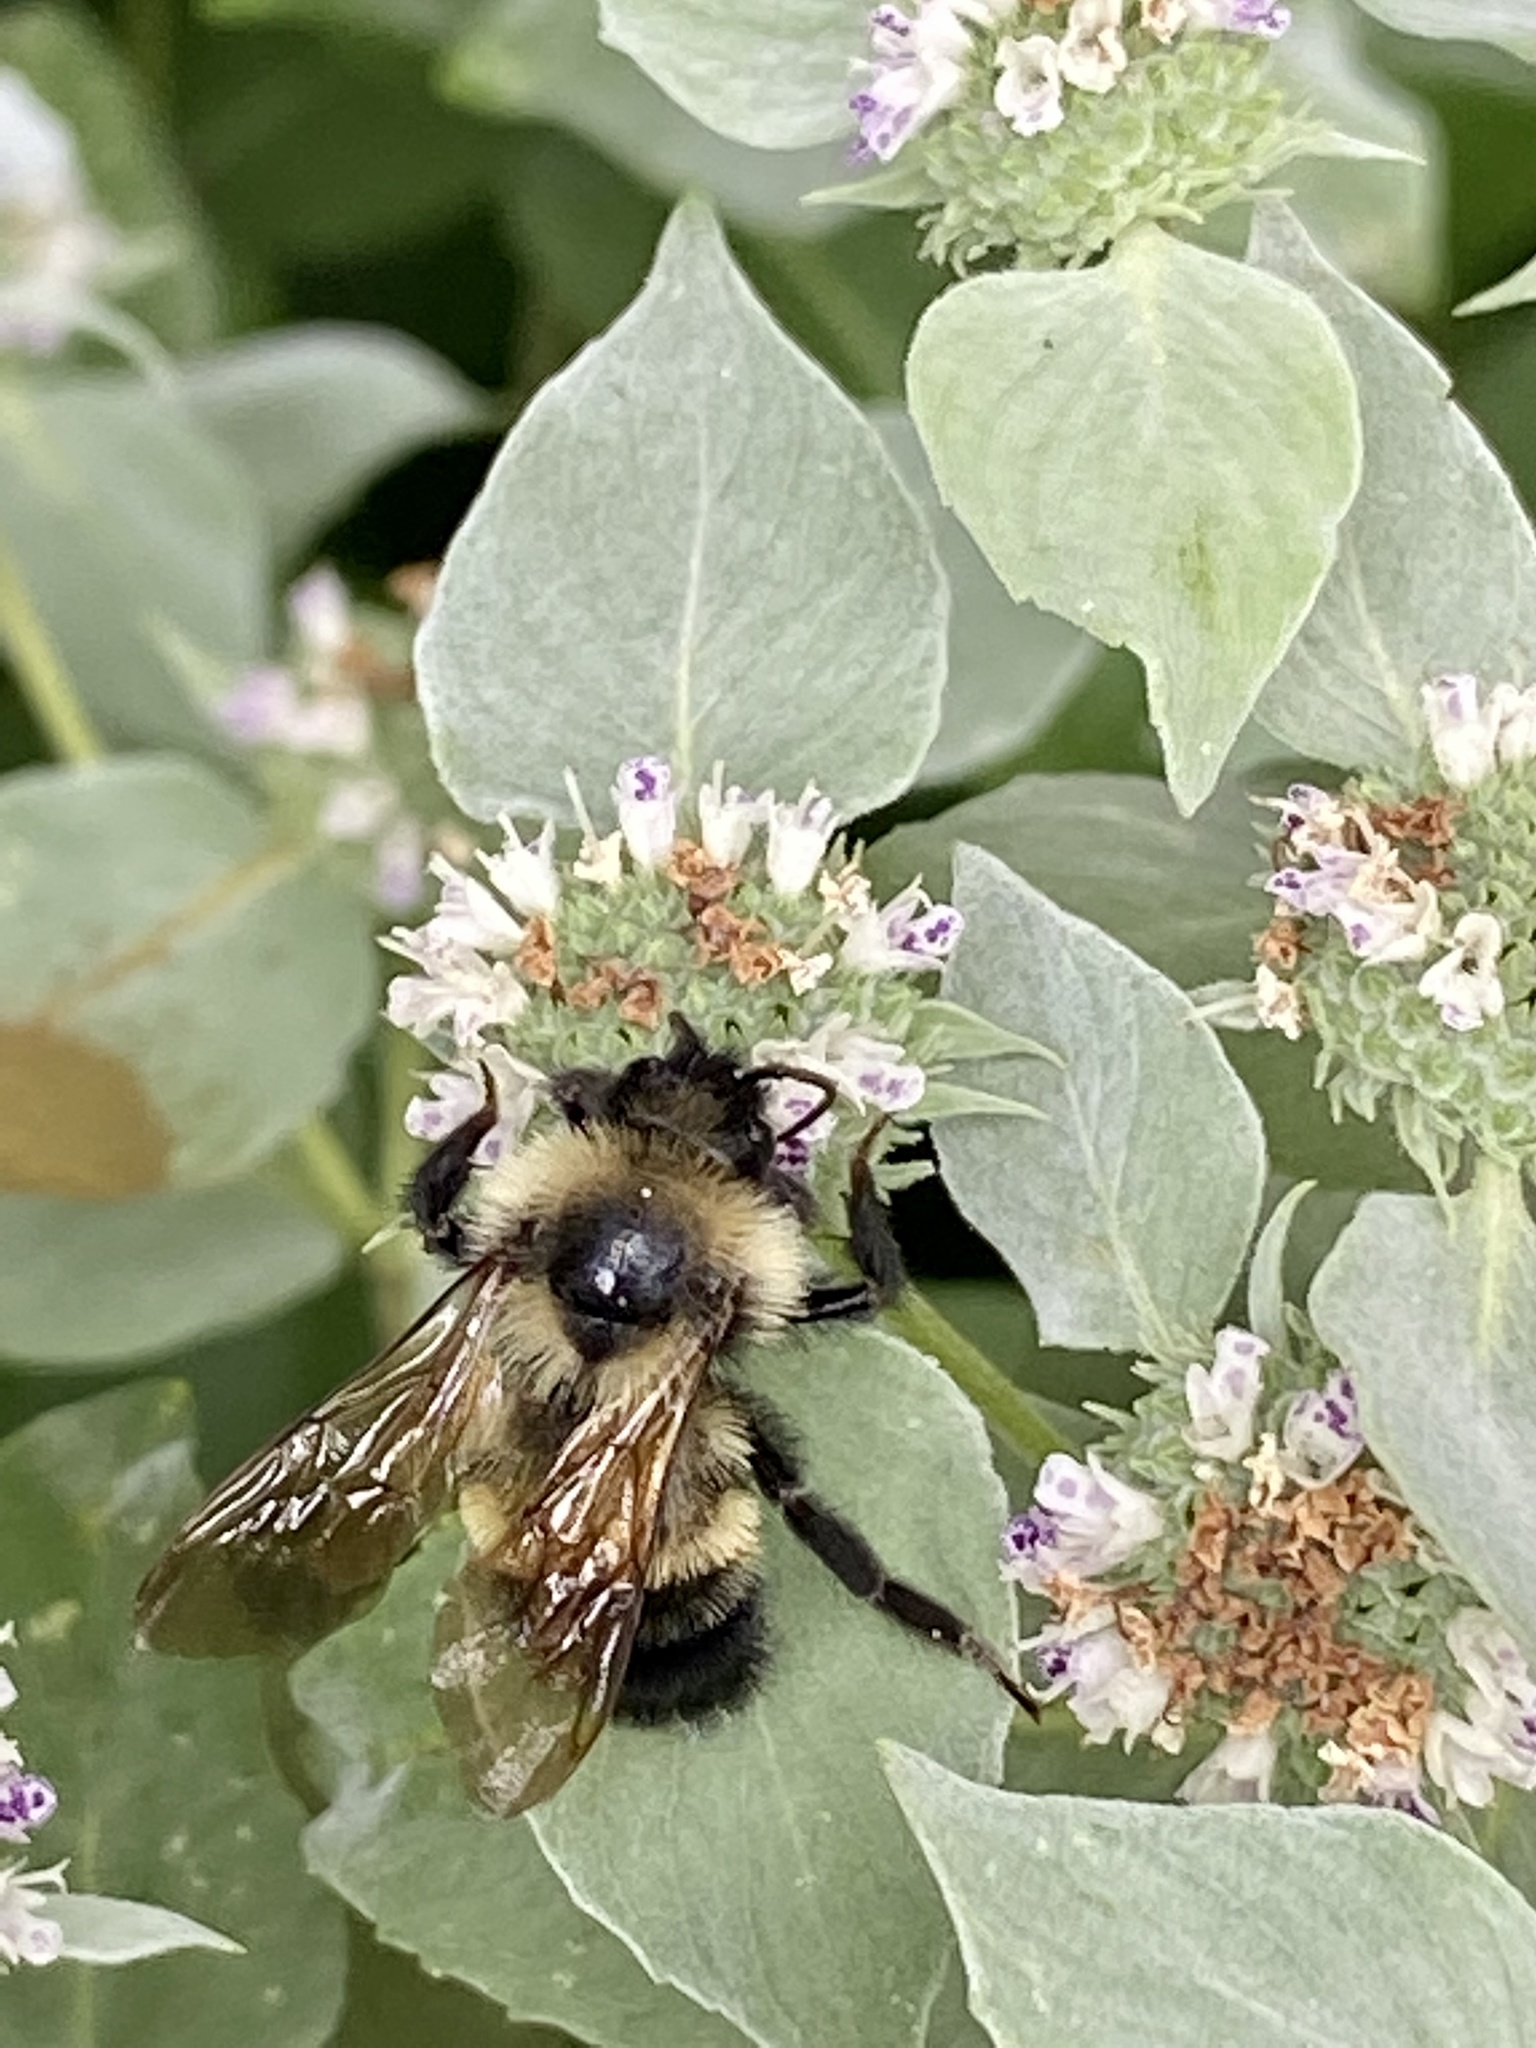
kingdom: Animalia
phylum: Arthropoda
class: Insecta
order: Hymenoptera
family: Apidae
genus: Bombus
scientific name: Bombus citrinus
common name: Lemon cuckoo bumble bee
